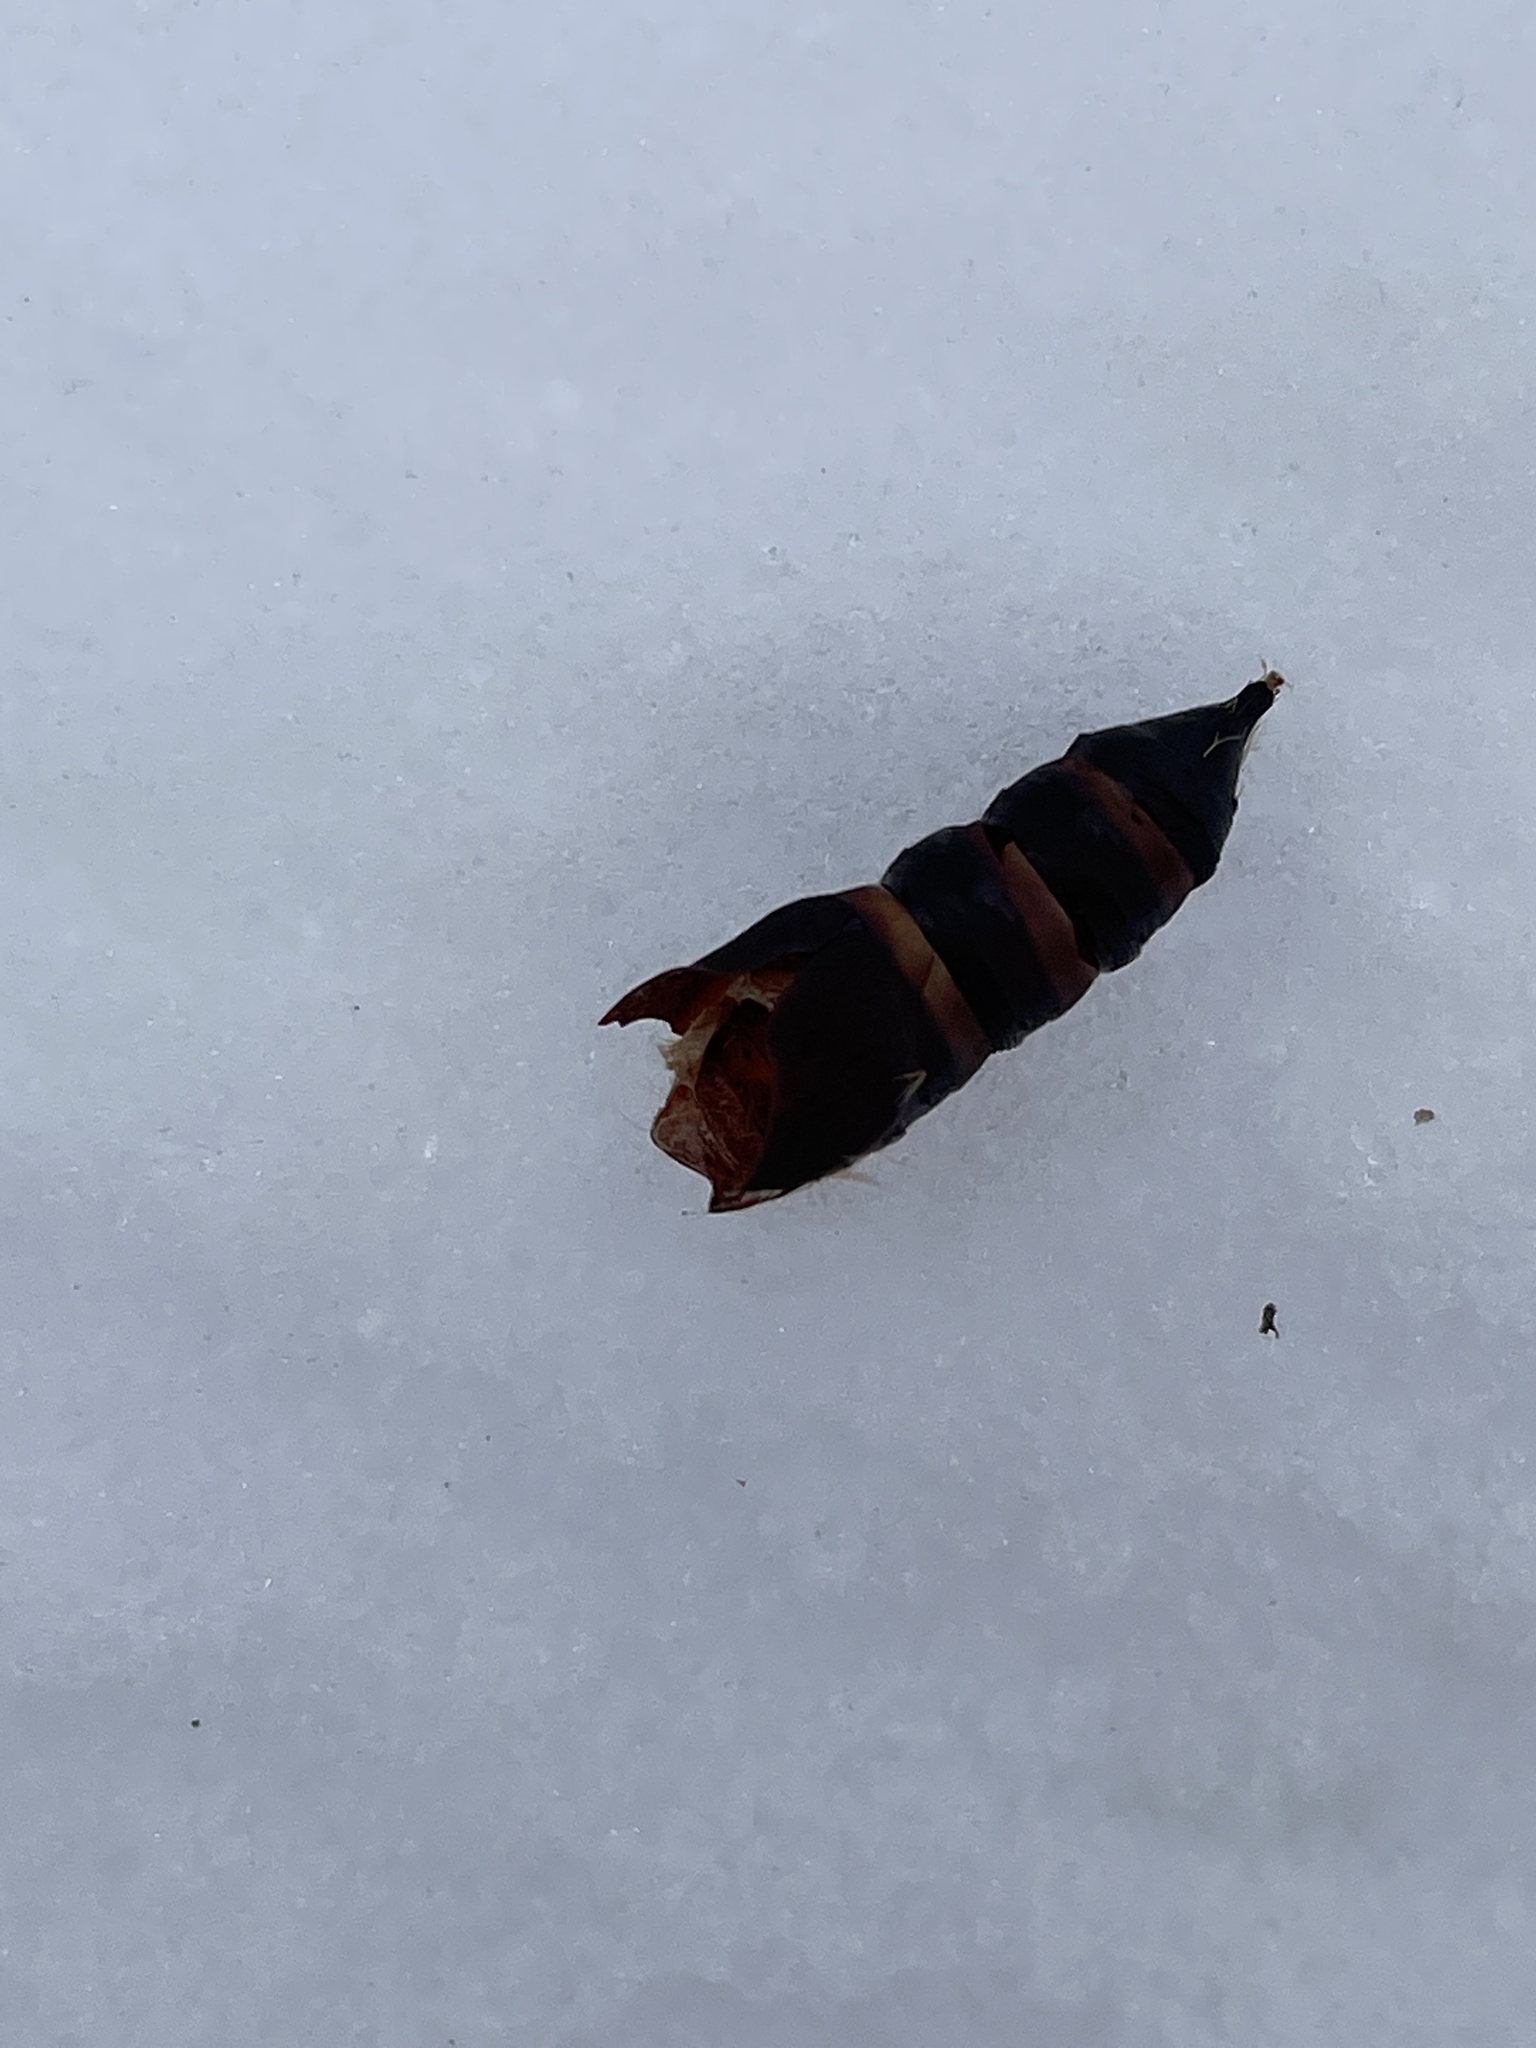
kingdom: Animalia
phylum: Arthropoda
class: Insecta
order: Lepidoptera
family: Erebidae
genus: Lymantria
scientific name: Lymantria dispar
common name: Gypsy moth
